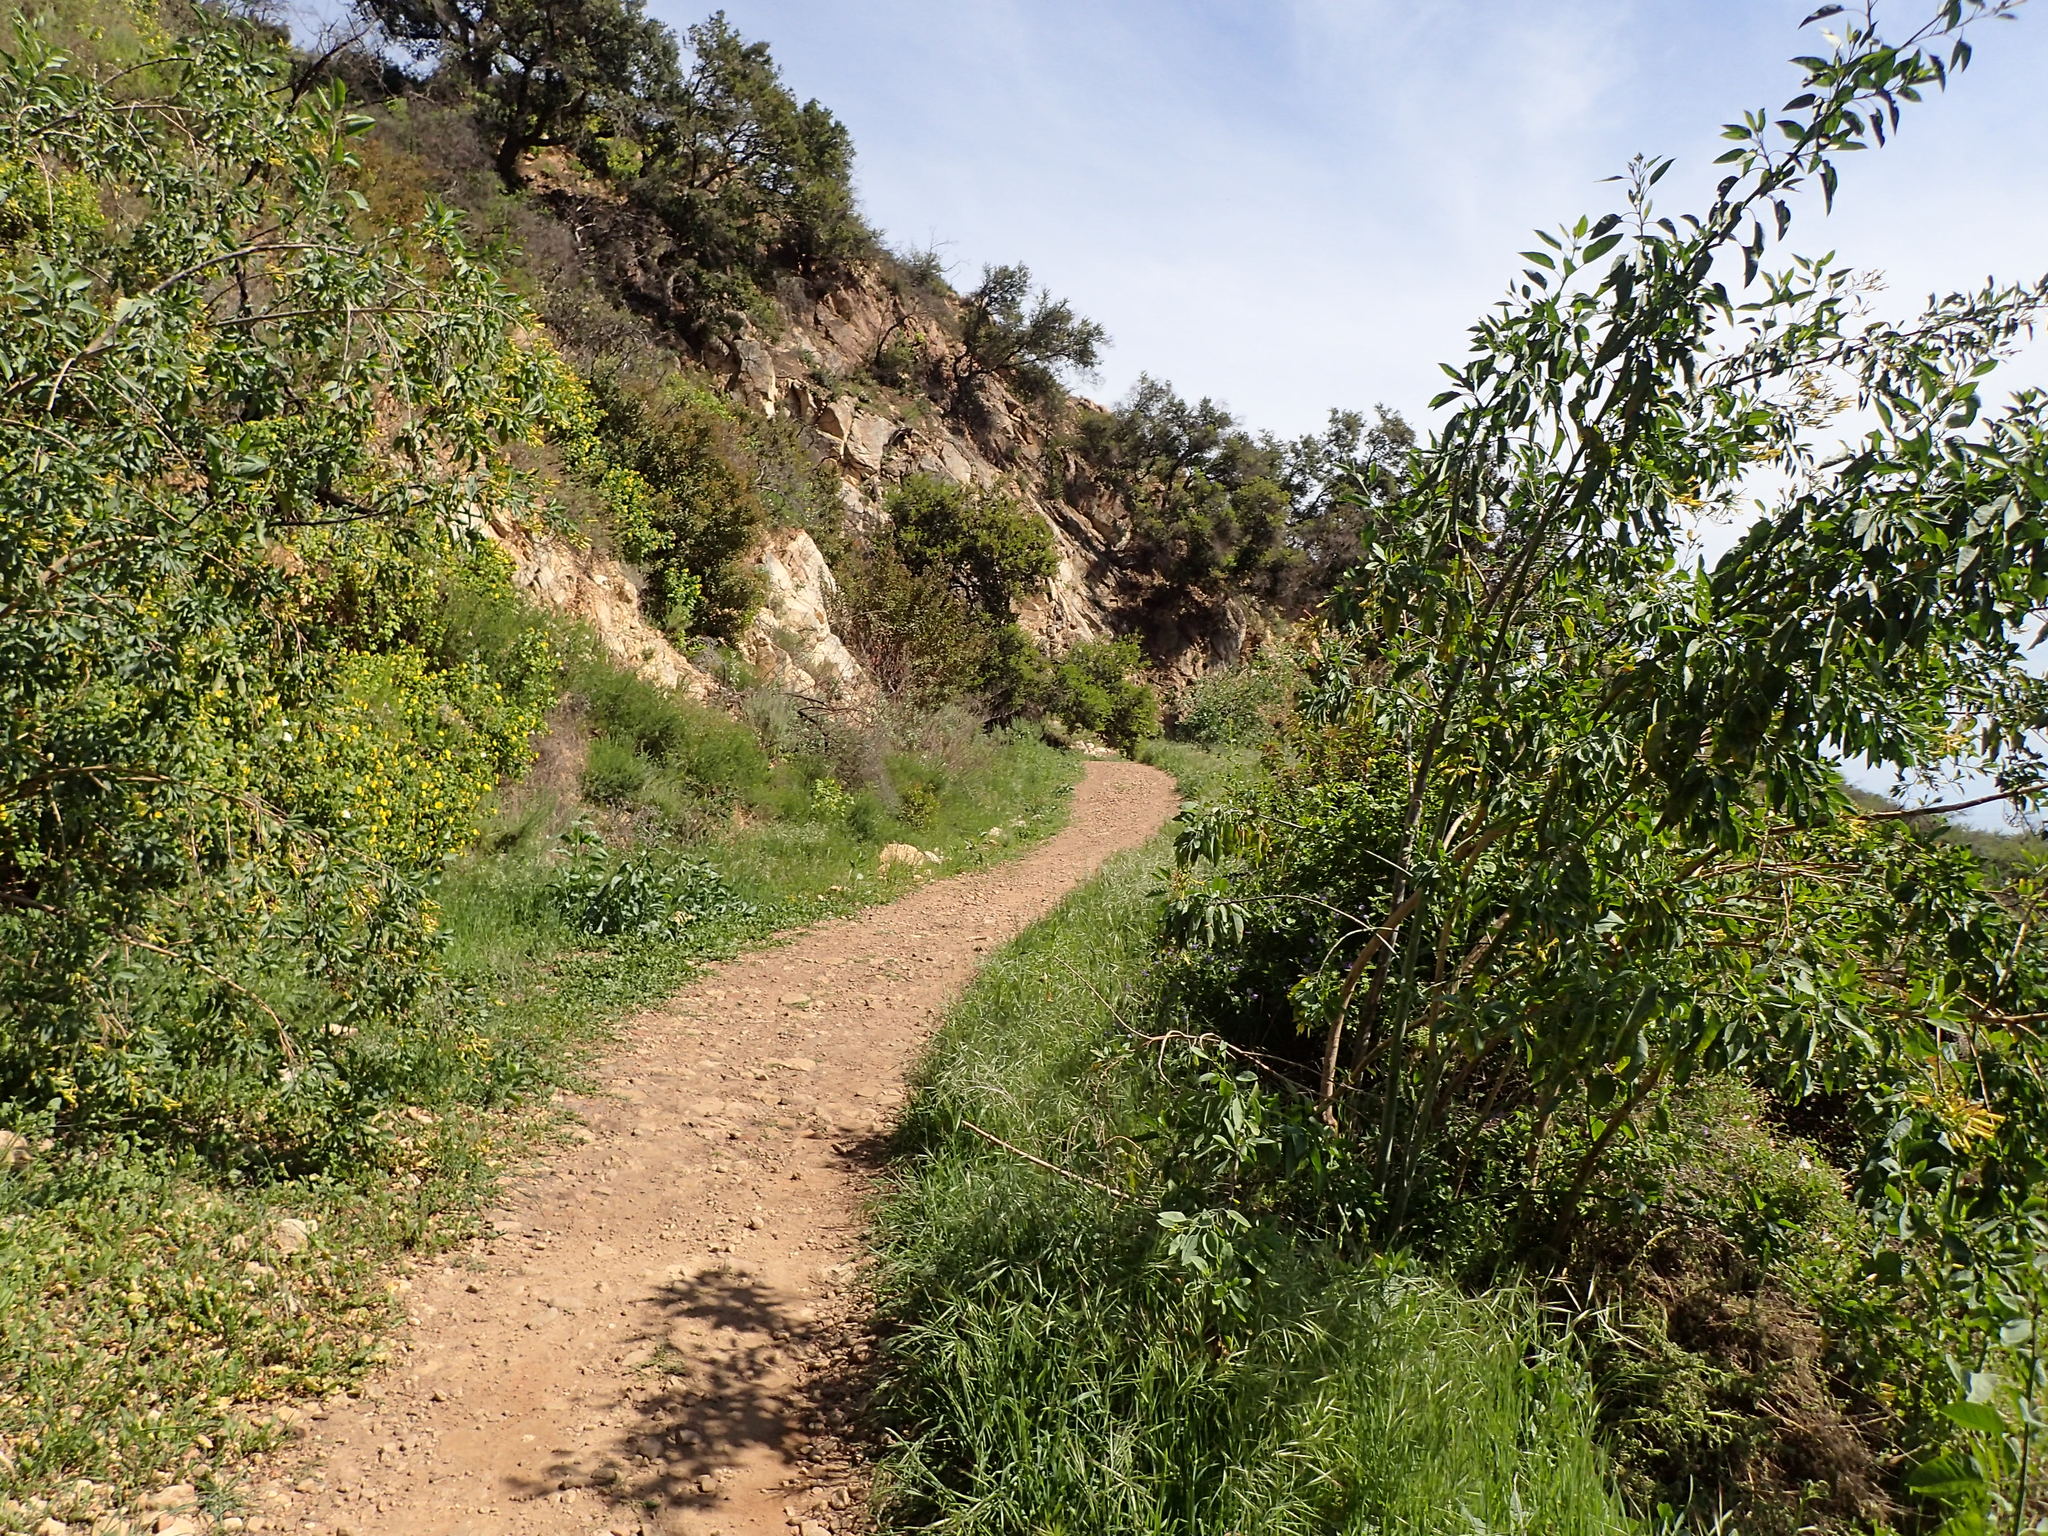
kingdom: Plantae
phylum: Tracheophyta
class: Magnoliopsida
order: Solanales
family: Solanaceae
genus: Nicotiana
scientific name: Nicotiana glauca
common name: Tree tobacco
